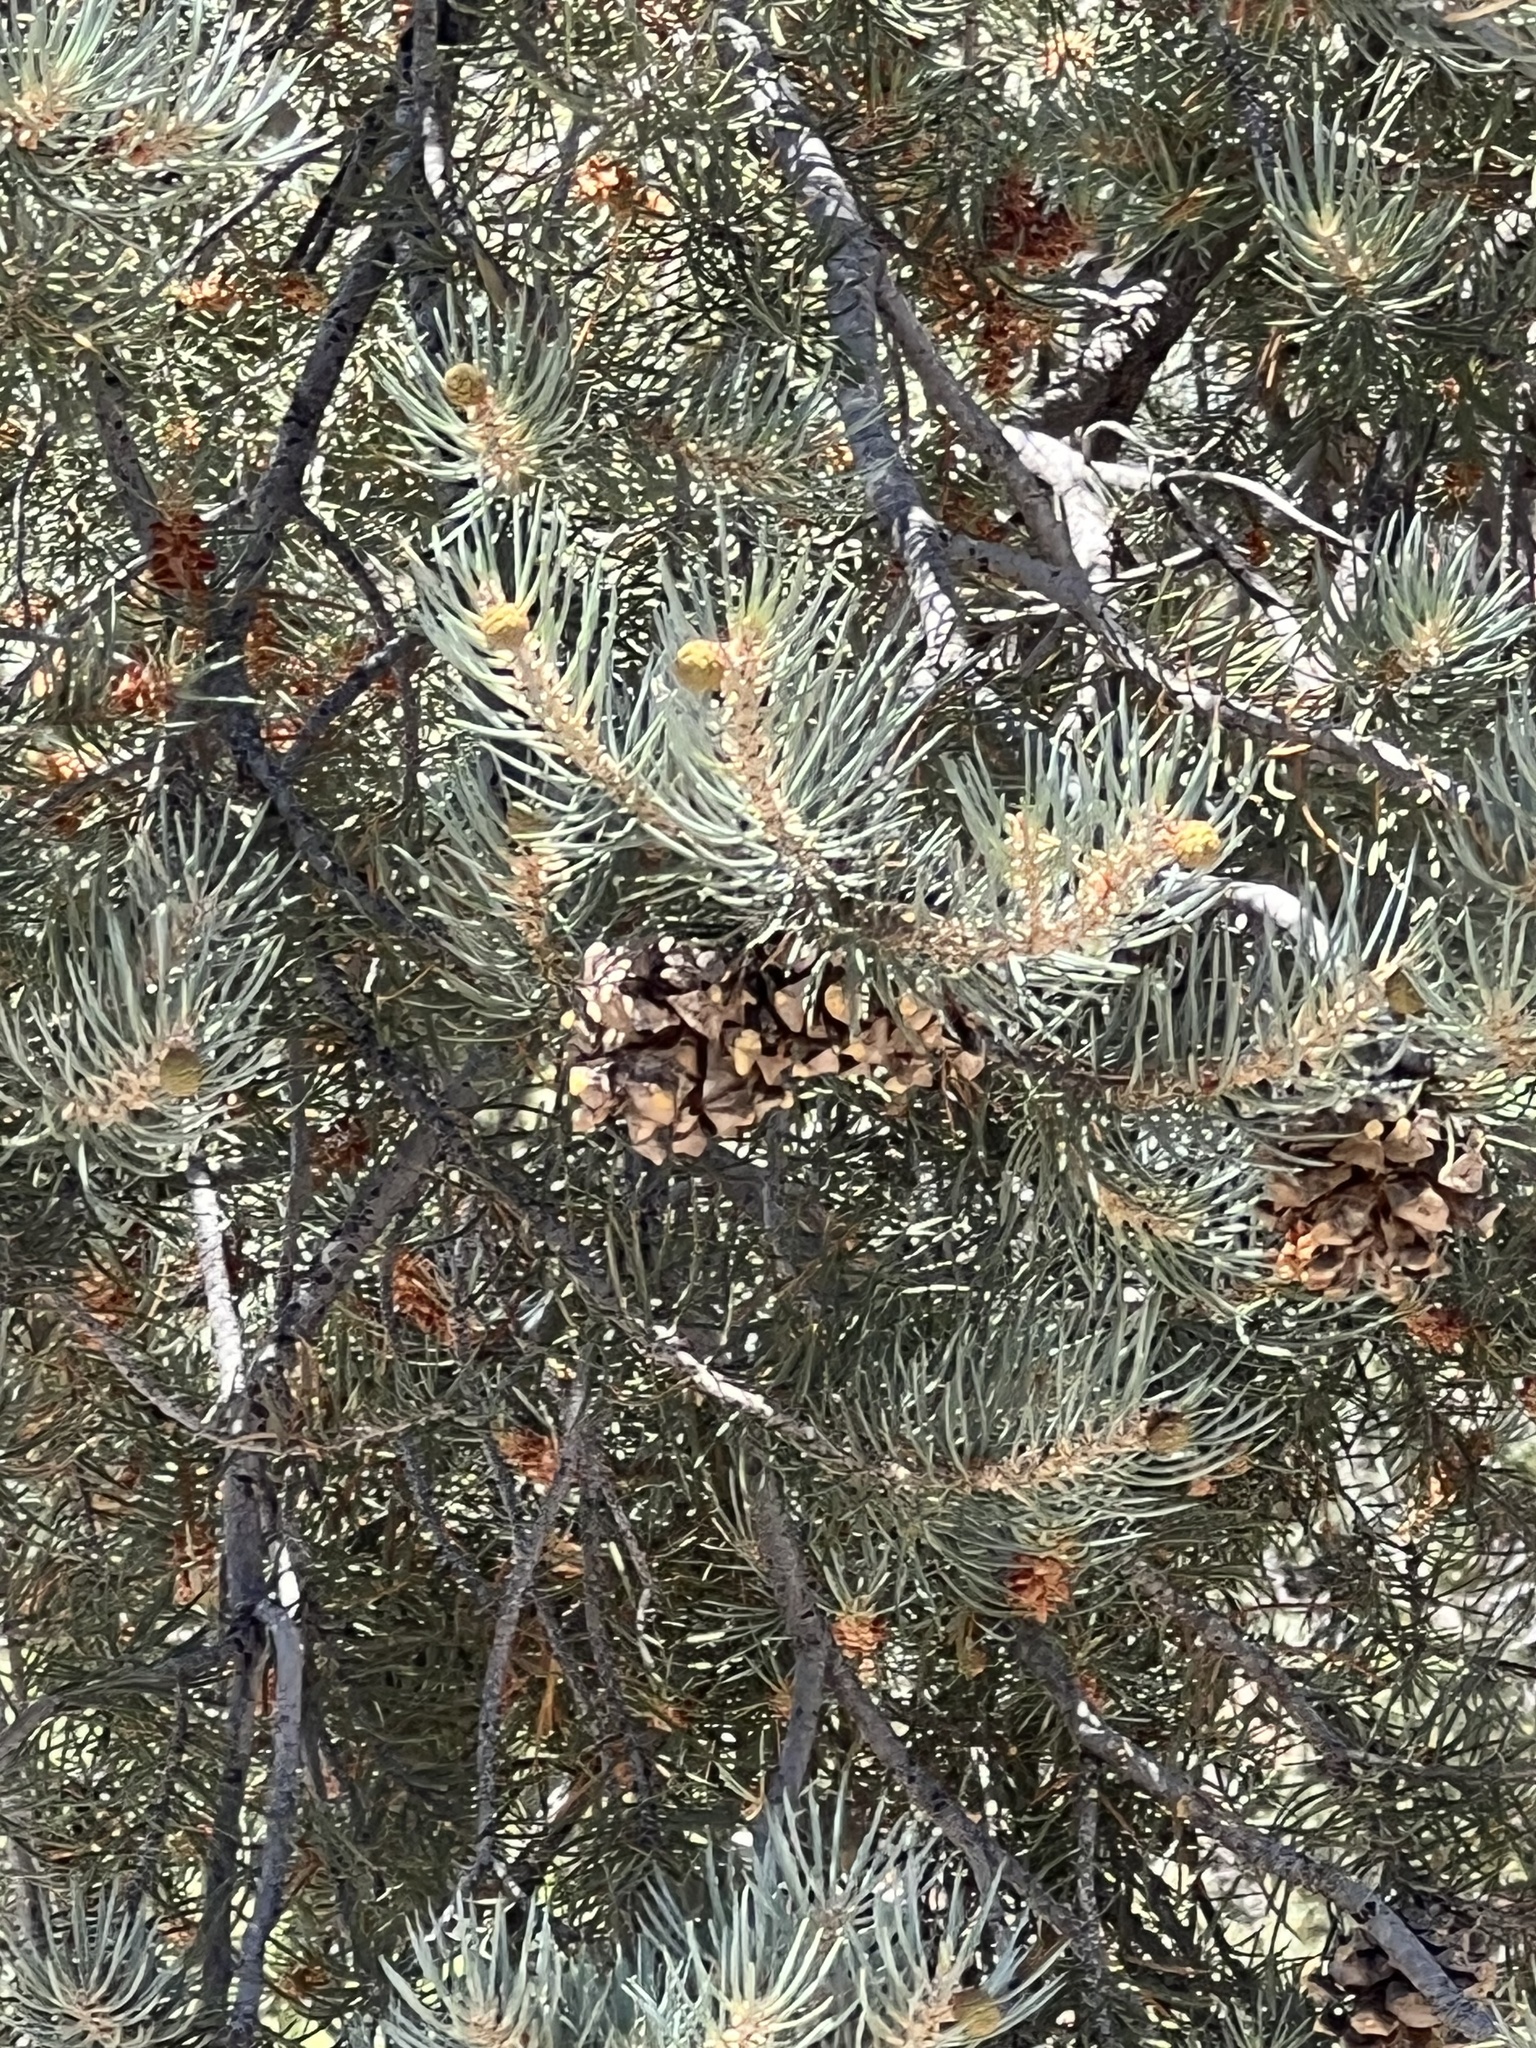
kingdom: Plantae
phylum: Tracheophyta
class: Pinopsida
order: Pinales
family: Pinaceae
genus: Pinus
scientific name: Pinus monophylla
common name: One-leaved nut pine
